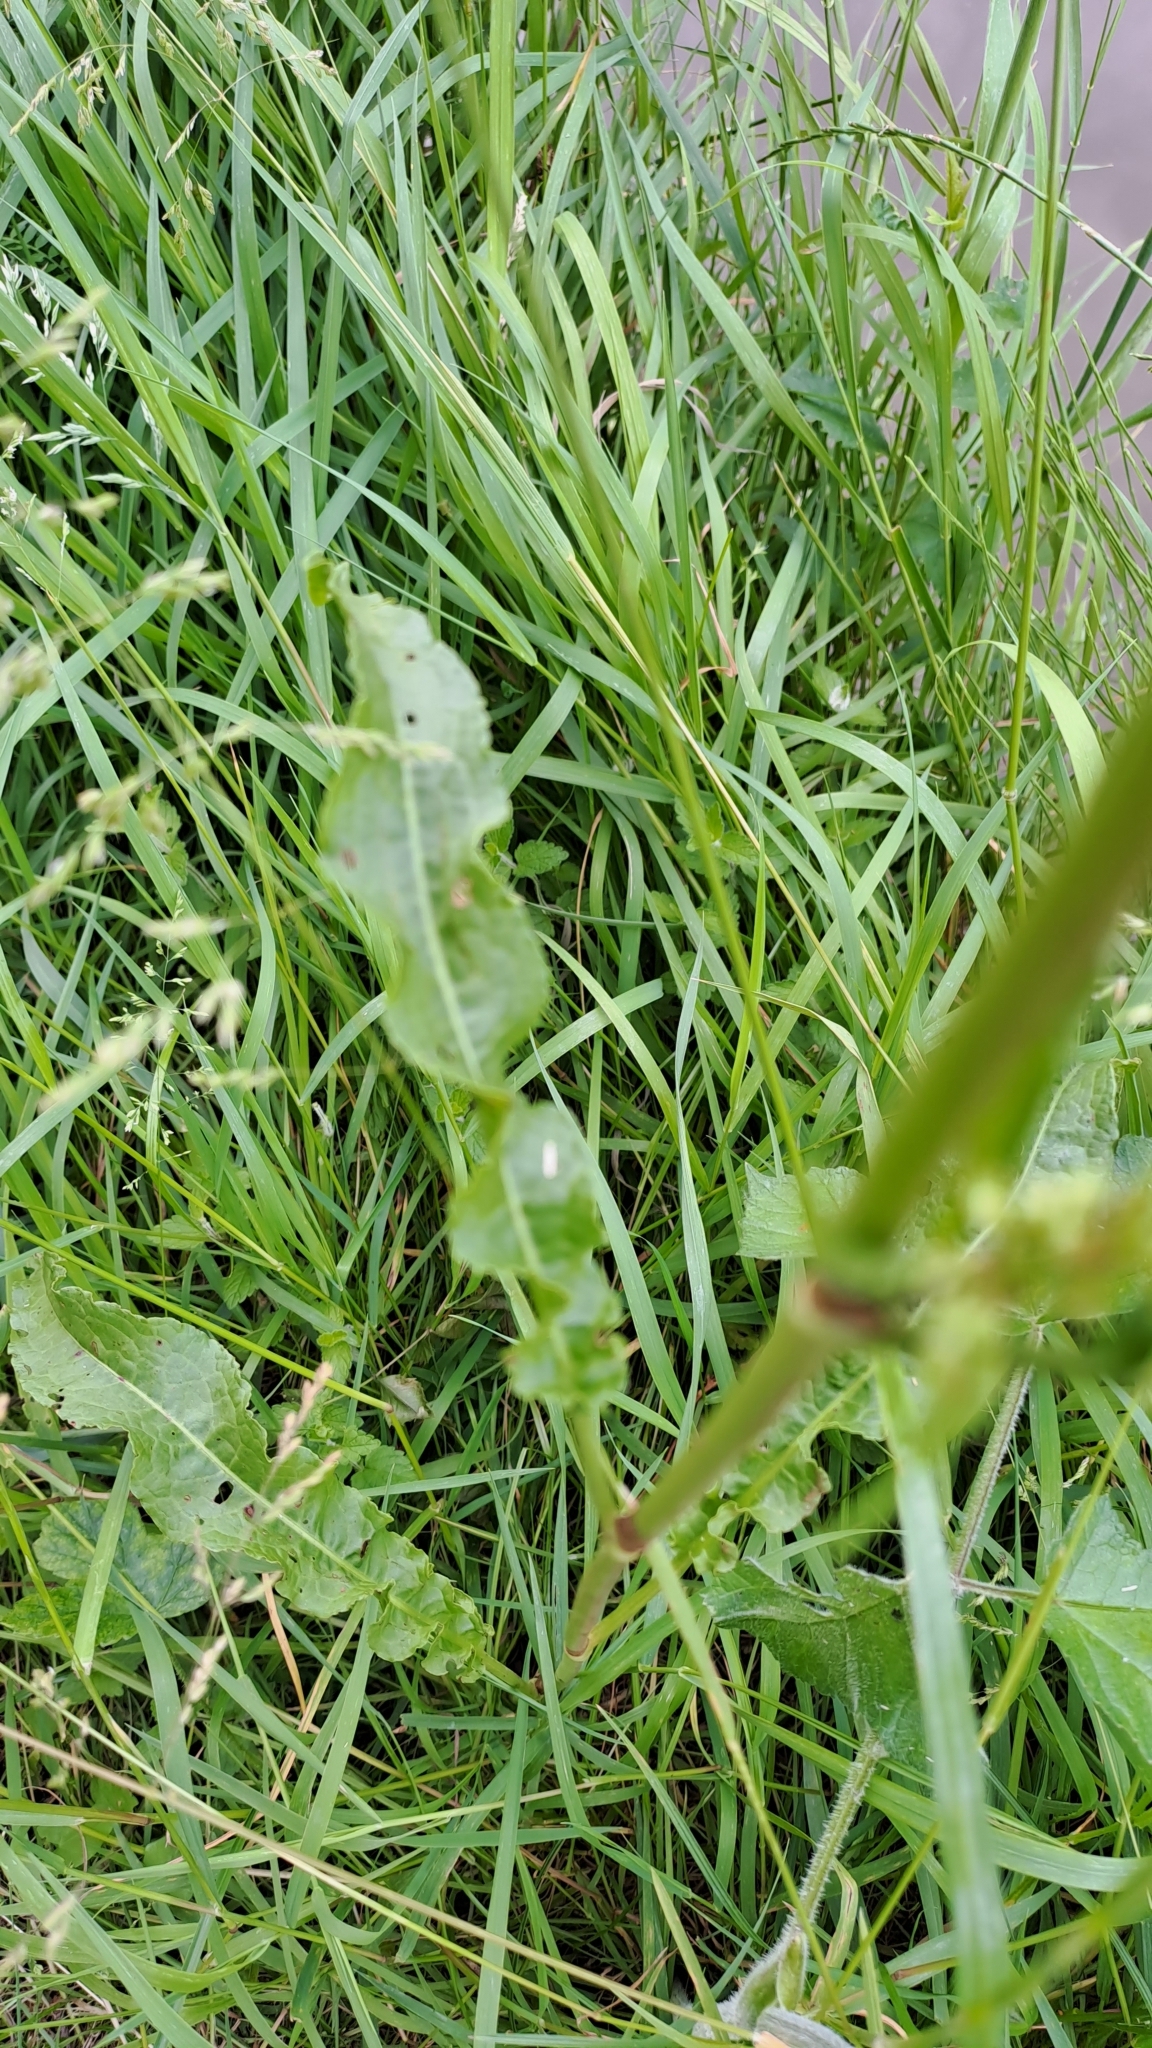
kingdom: Plantae
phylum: Tracheophyta
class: Magnoliopsida
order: Caryophyllales
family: Polygonaceae
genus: Rumex
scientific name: Rumex crispus
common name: Curled dock
